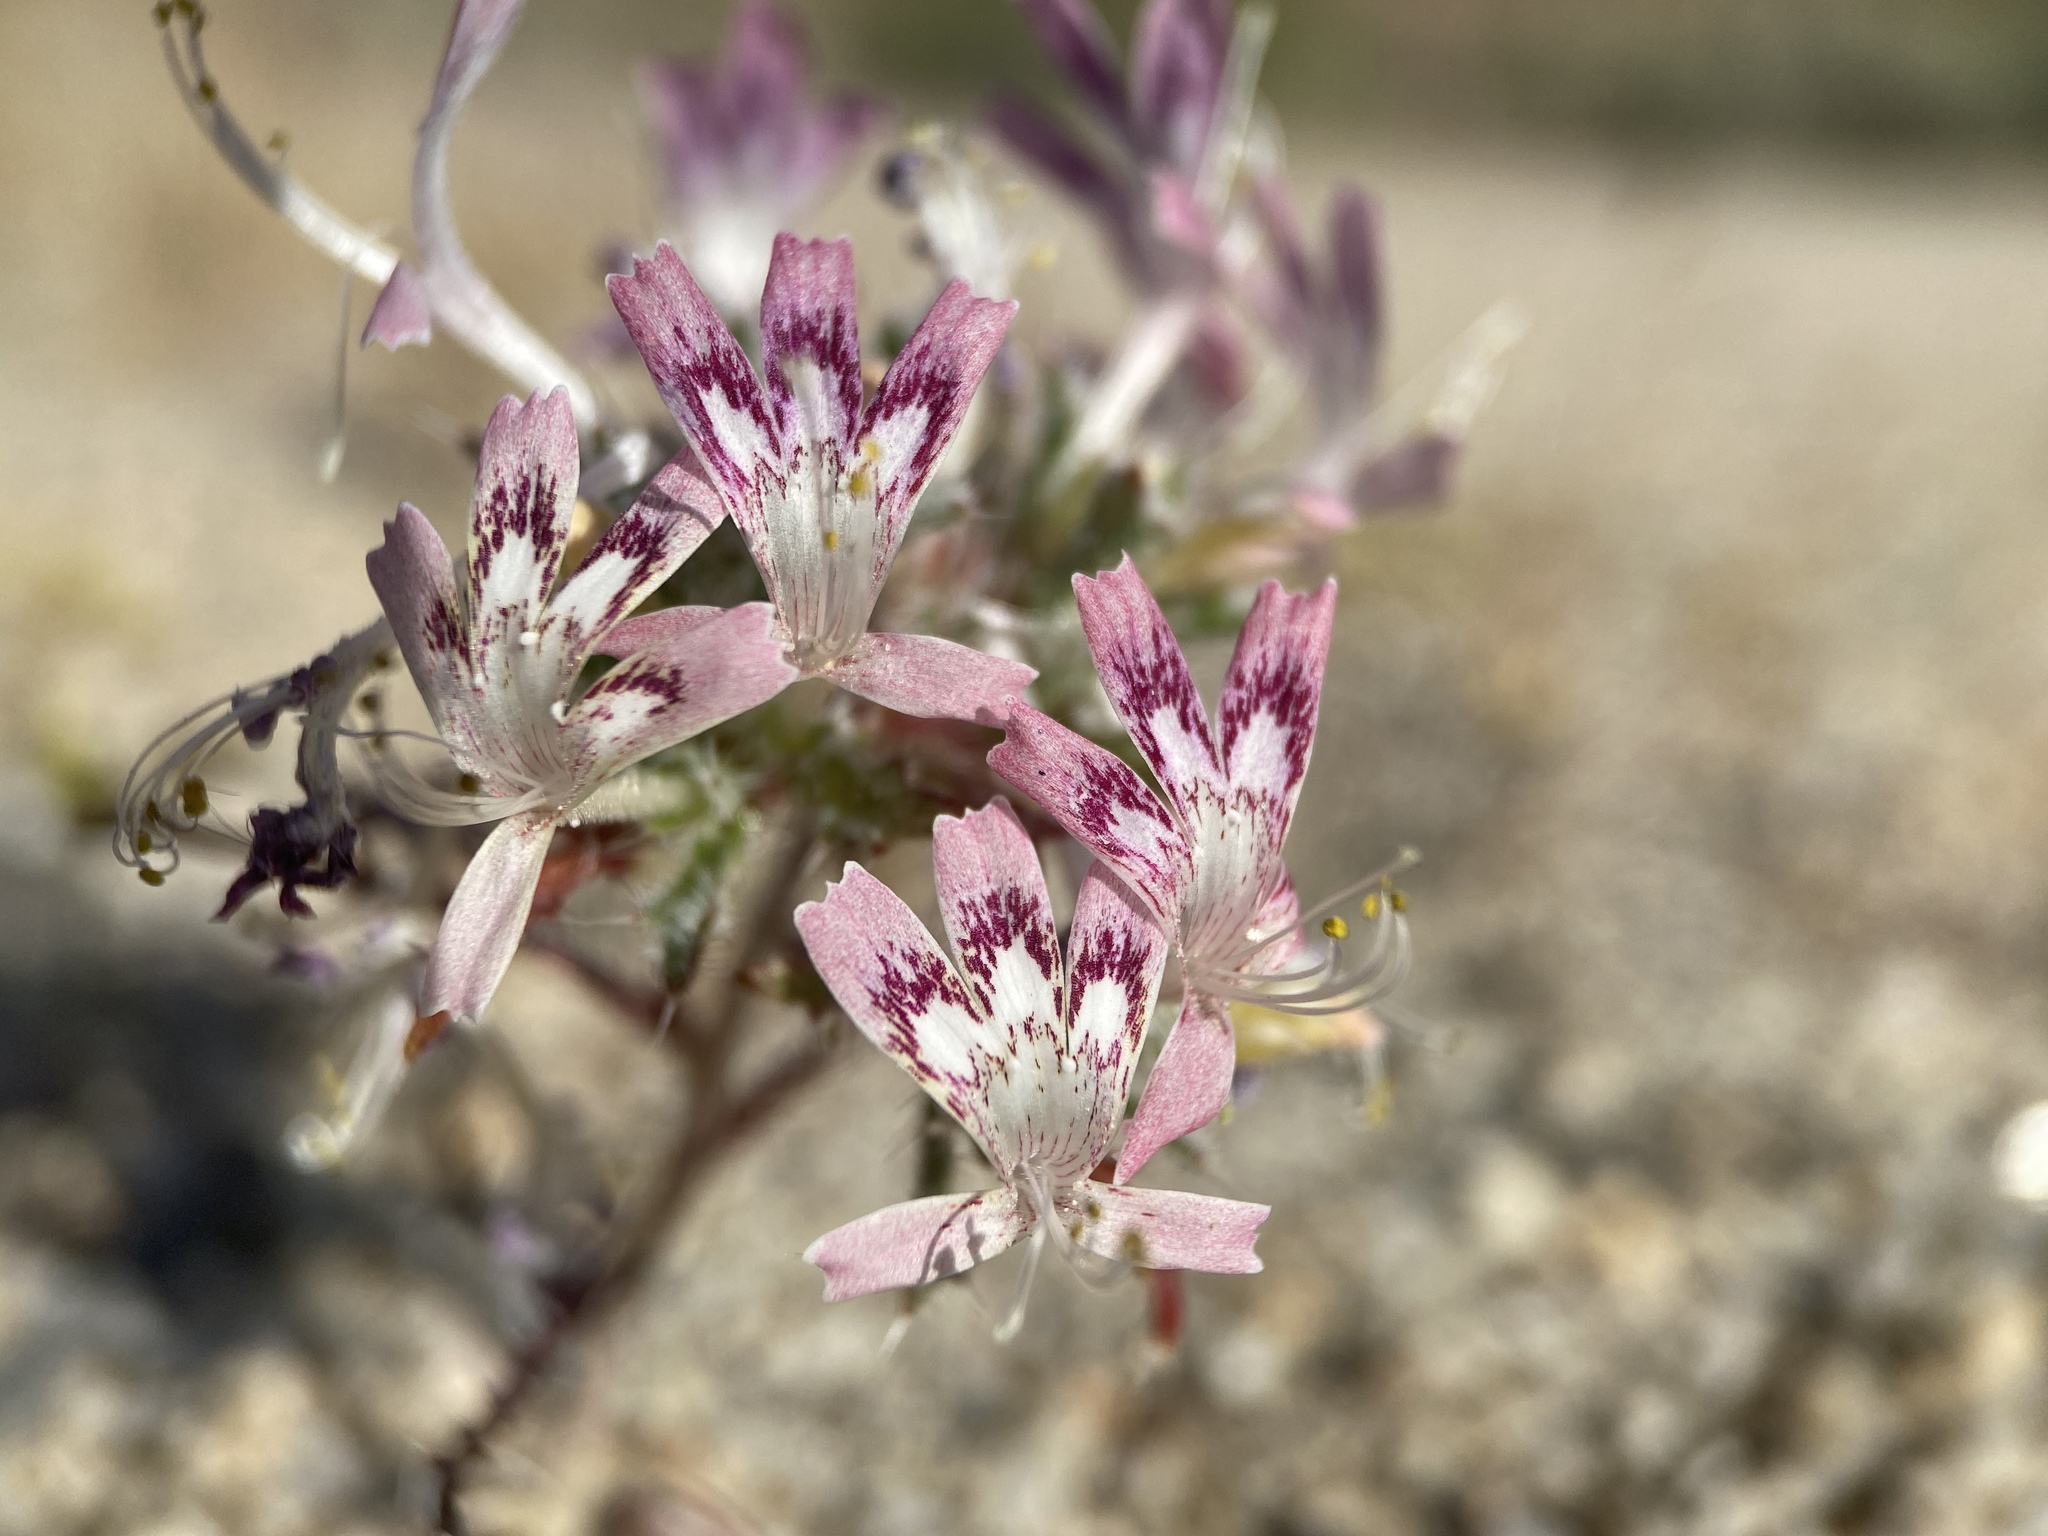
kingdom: Plantae
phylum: Tracheophyta
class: Magnoliopsida
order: Ericales
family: Polemoniaceae
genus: Loeseliastrum
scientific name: Loeseliastrum matthewsii
